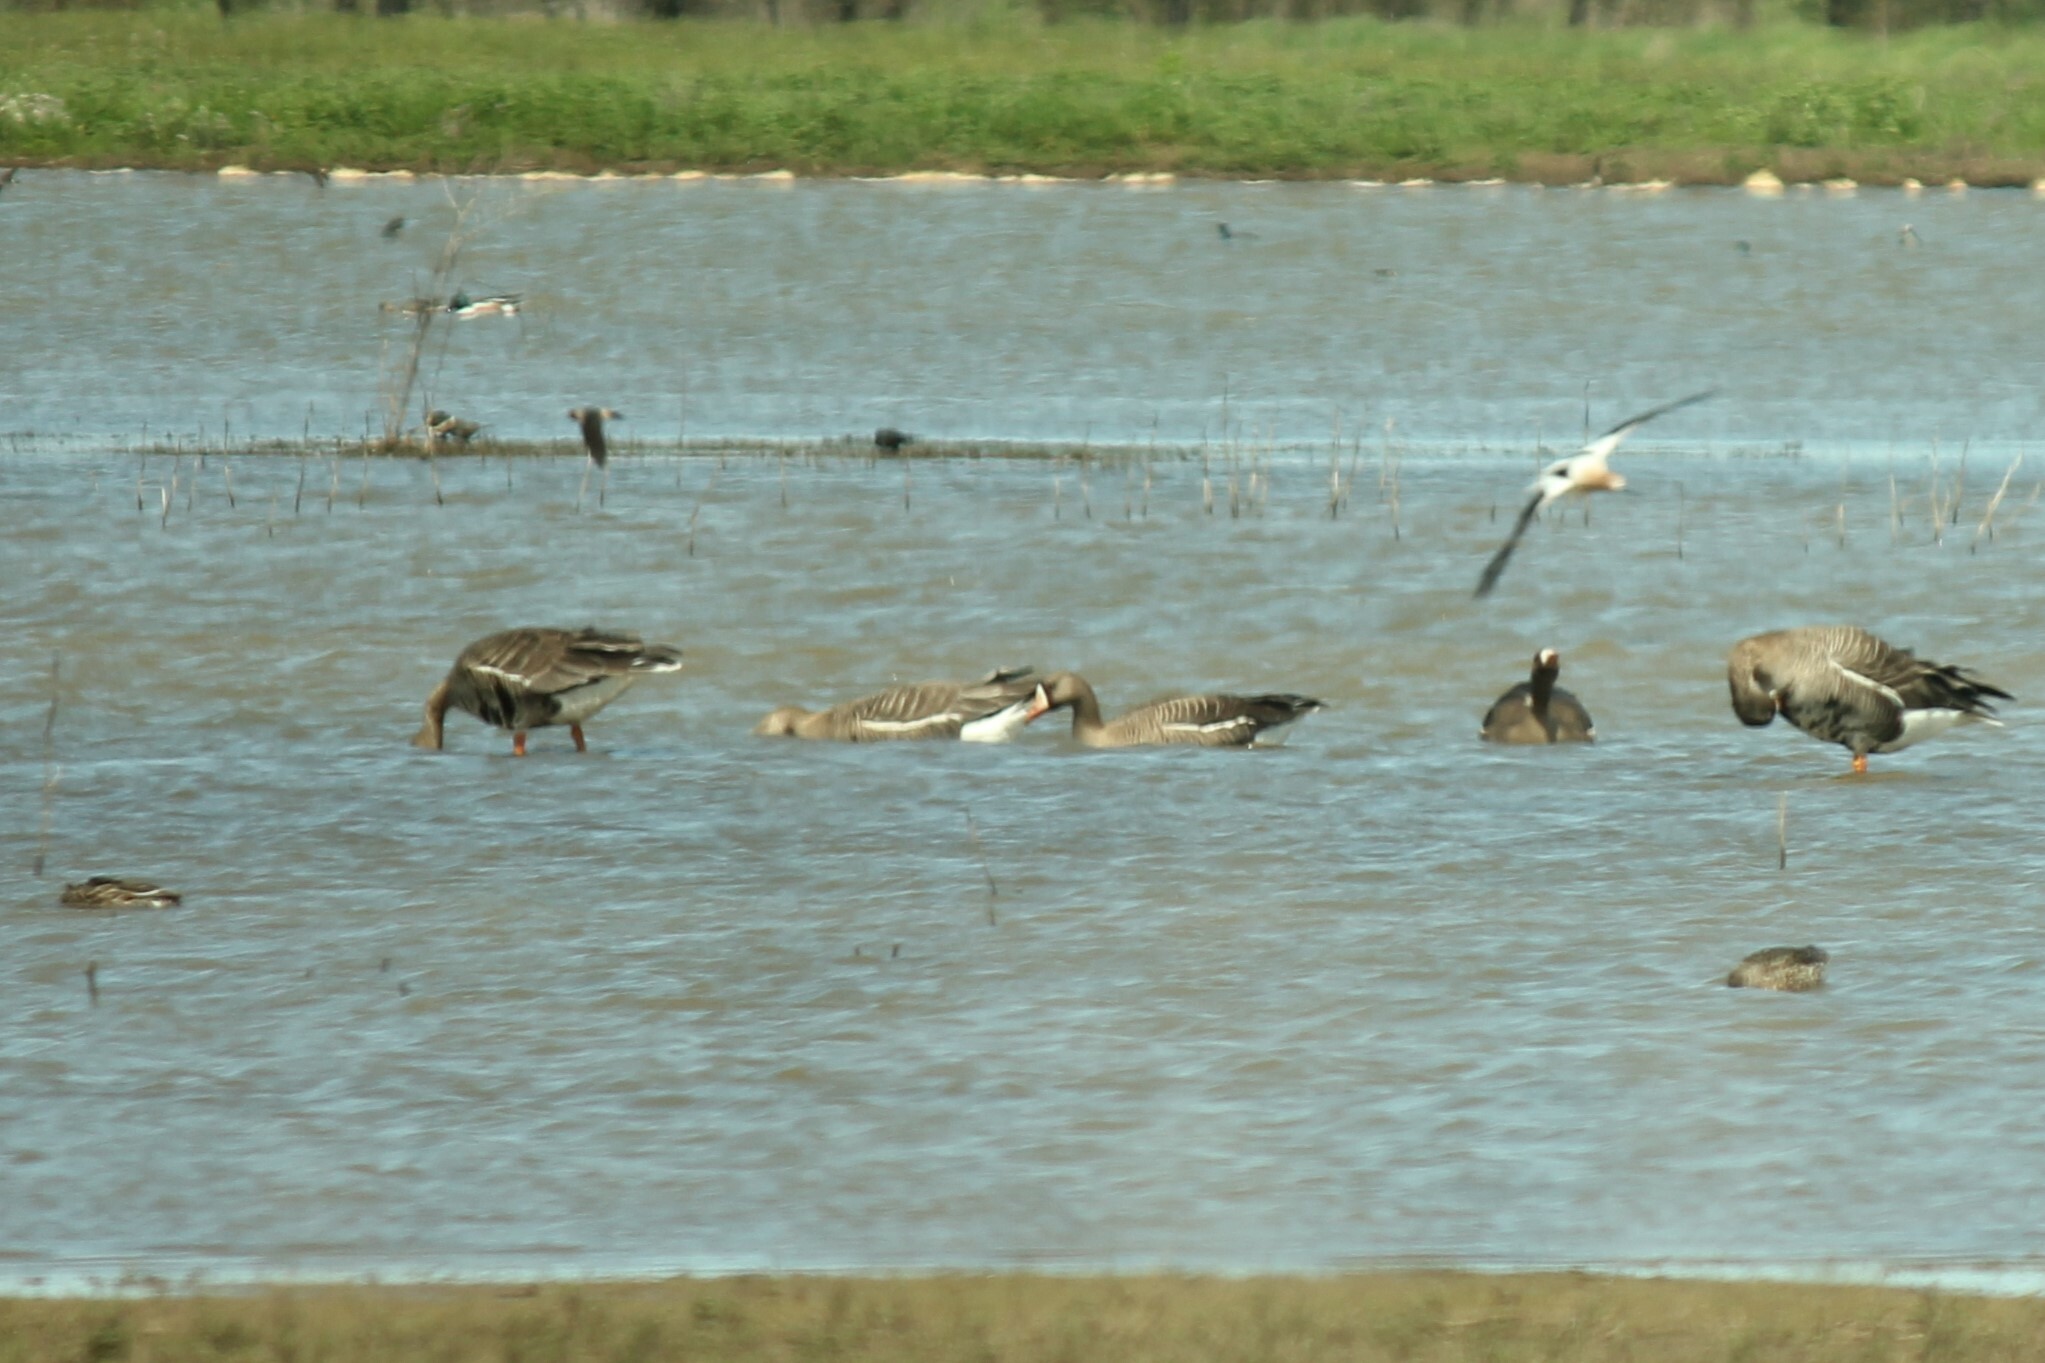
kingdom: Animalia
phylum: Chordata
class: Aves
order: Anseriformes
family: Anatidae
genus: Anser
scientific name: Anser albifrons
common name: Greater white-fronted goose
